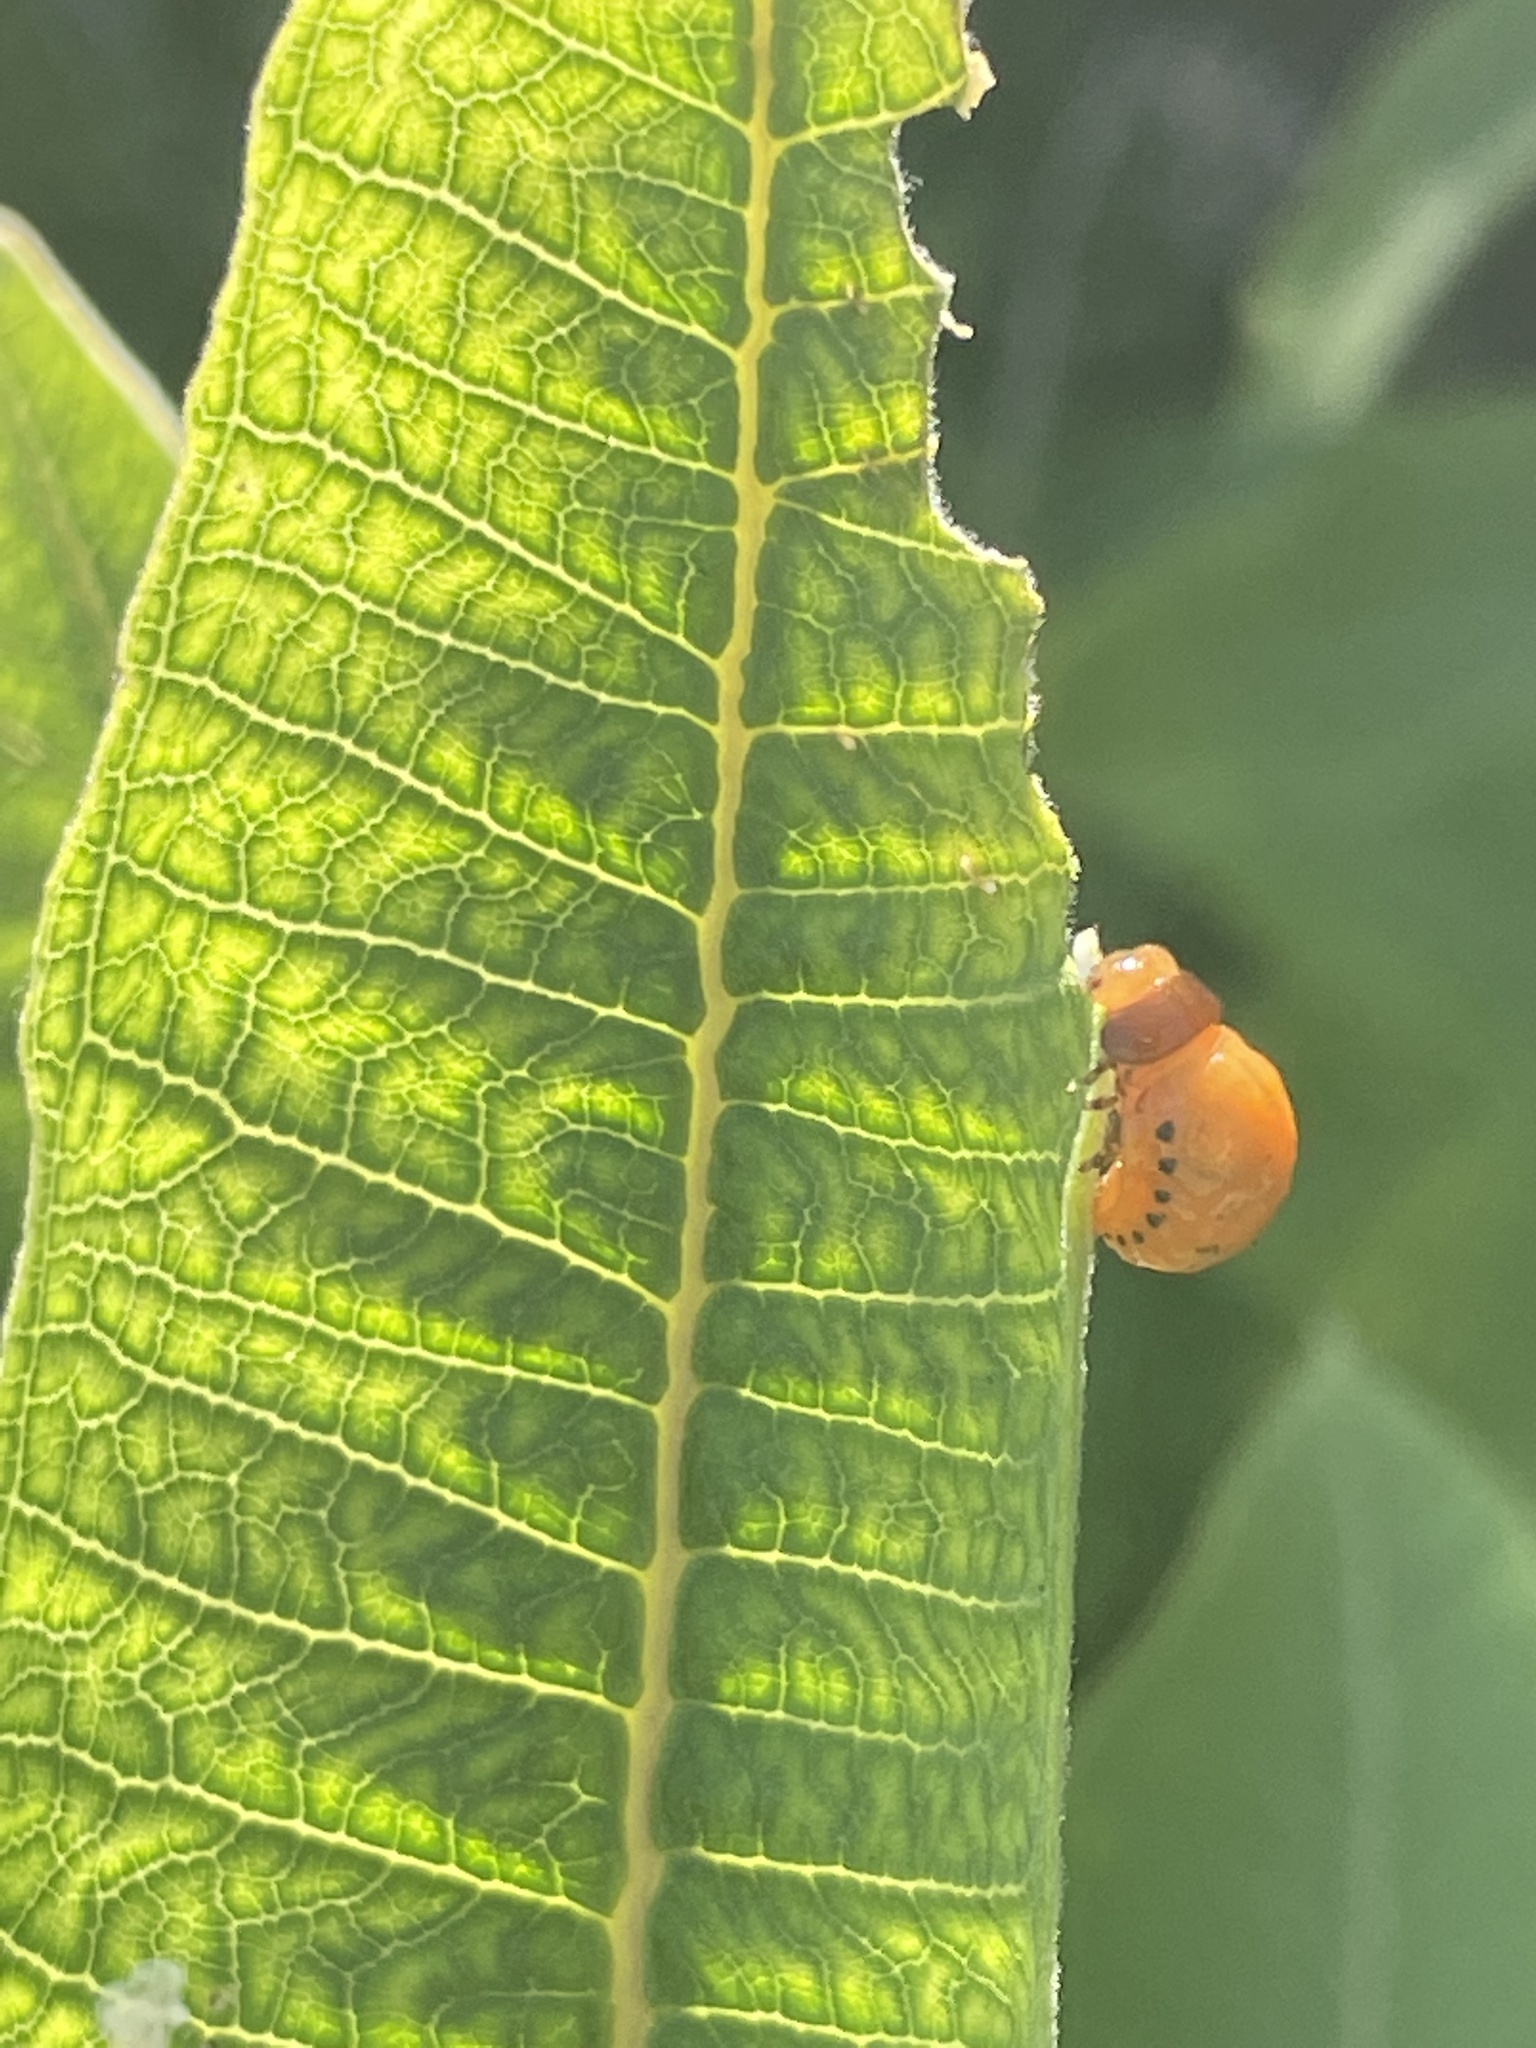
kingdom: Animalia
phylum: Arthropoda
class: Insecta
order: Coleoptera
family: Chrysomelidae
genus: Labidomera
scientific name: Labidomera clivicollis
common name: Swamp milkweed leaf beetle
